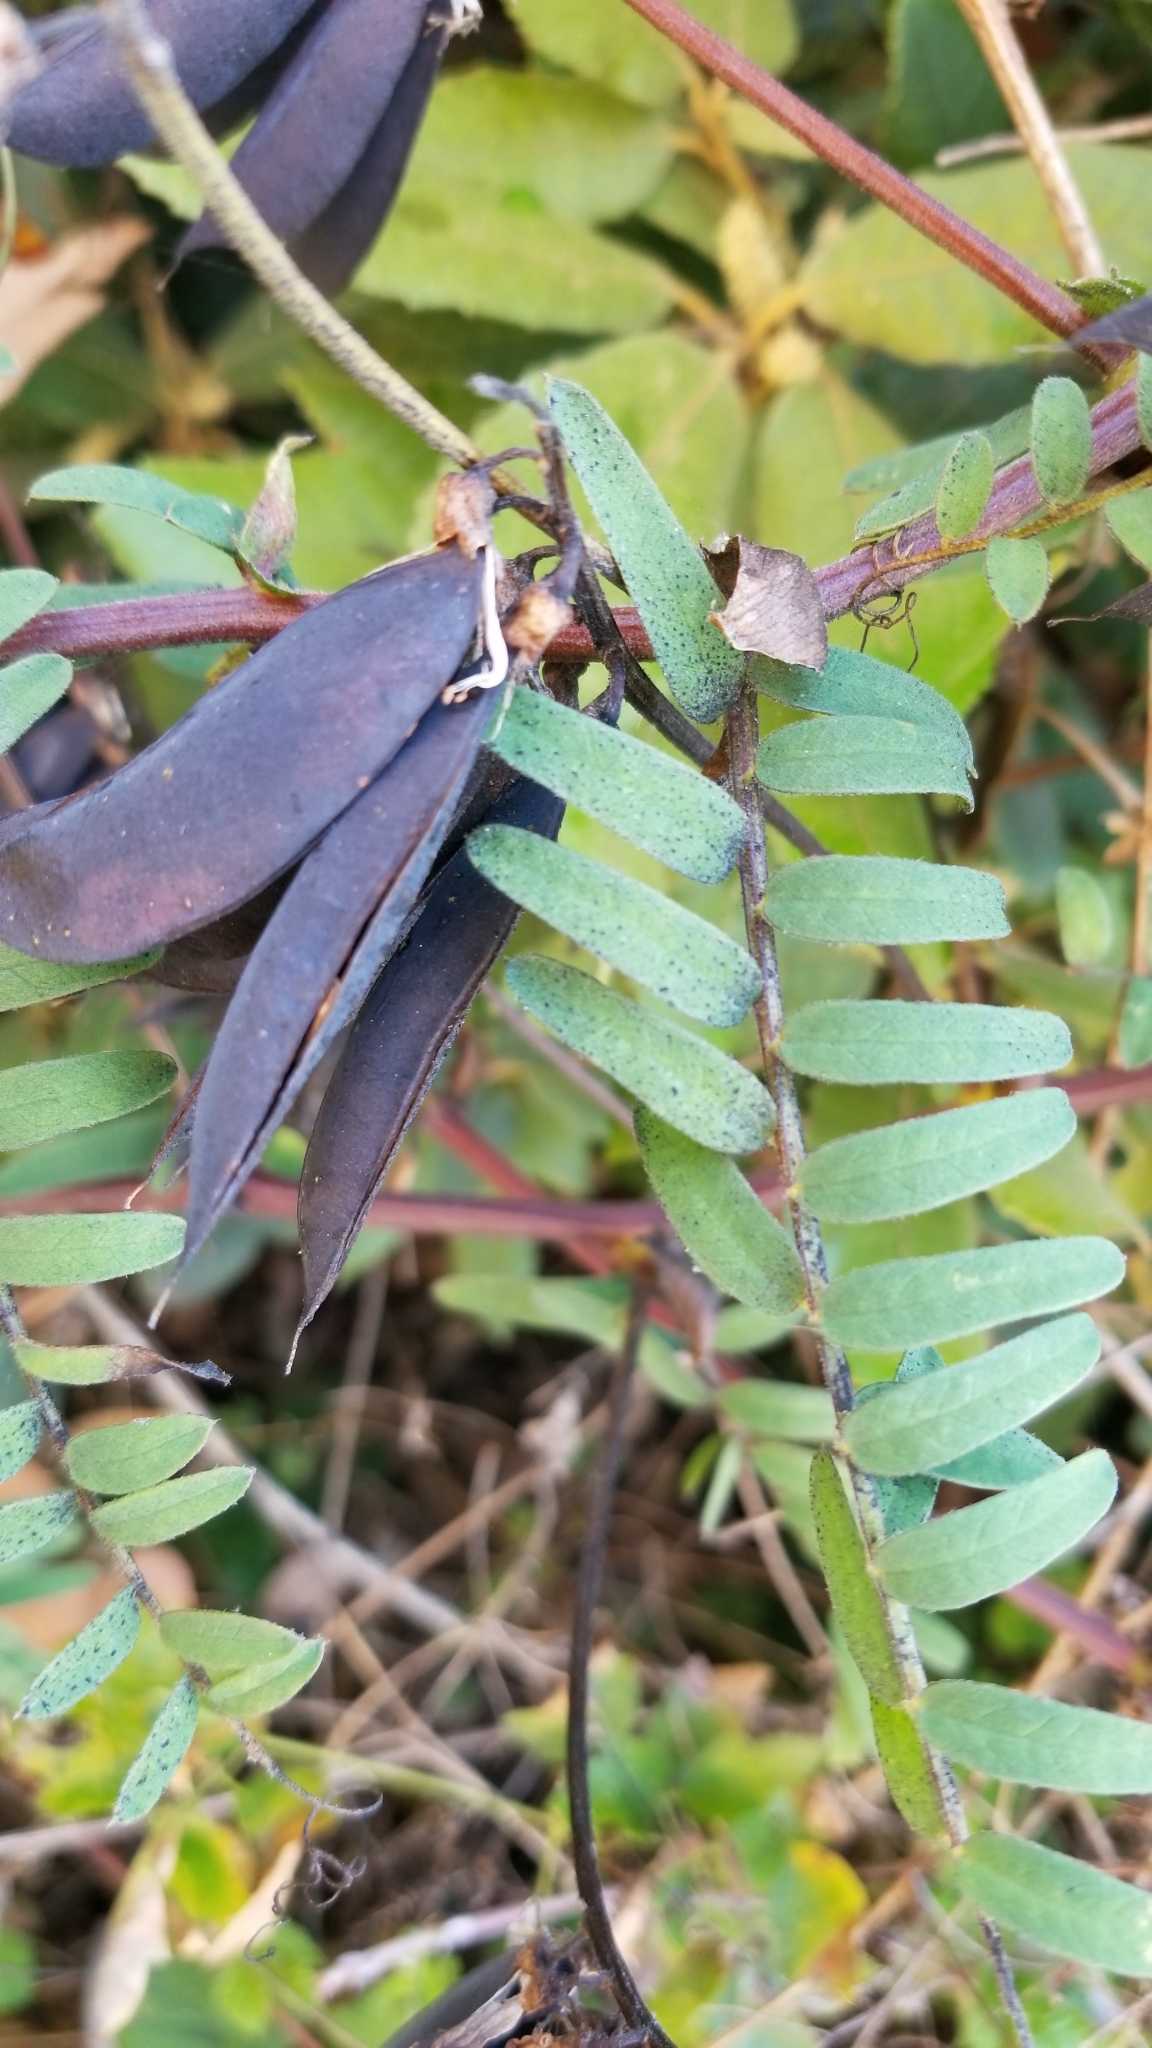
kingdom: Plantae
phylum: Tracheophyta
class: Magnoliopsida
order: Fabales
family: Fabaceae
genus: Vicia
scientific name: Vicia
